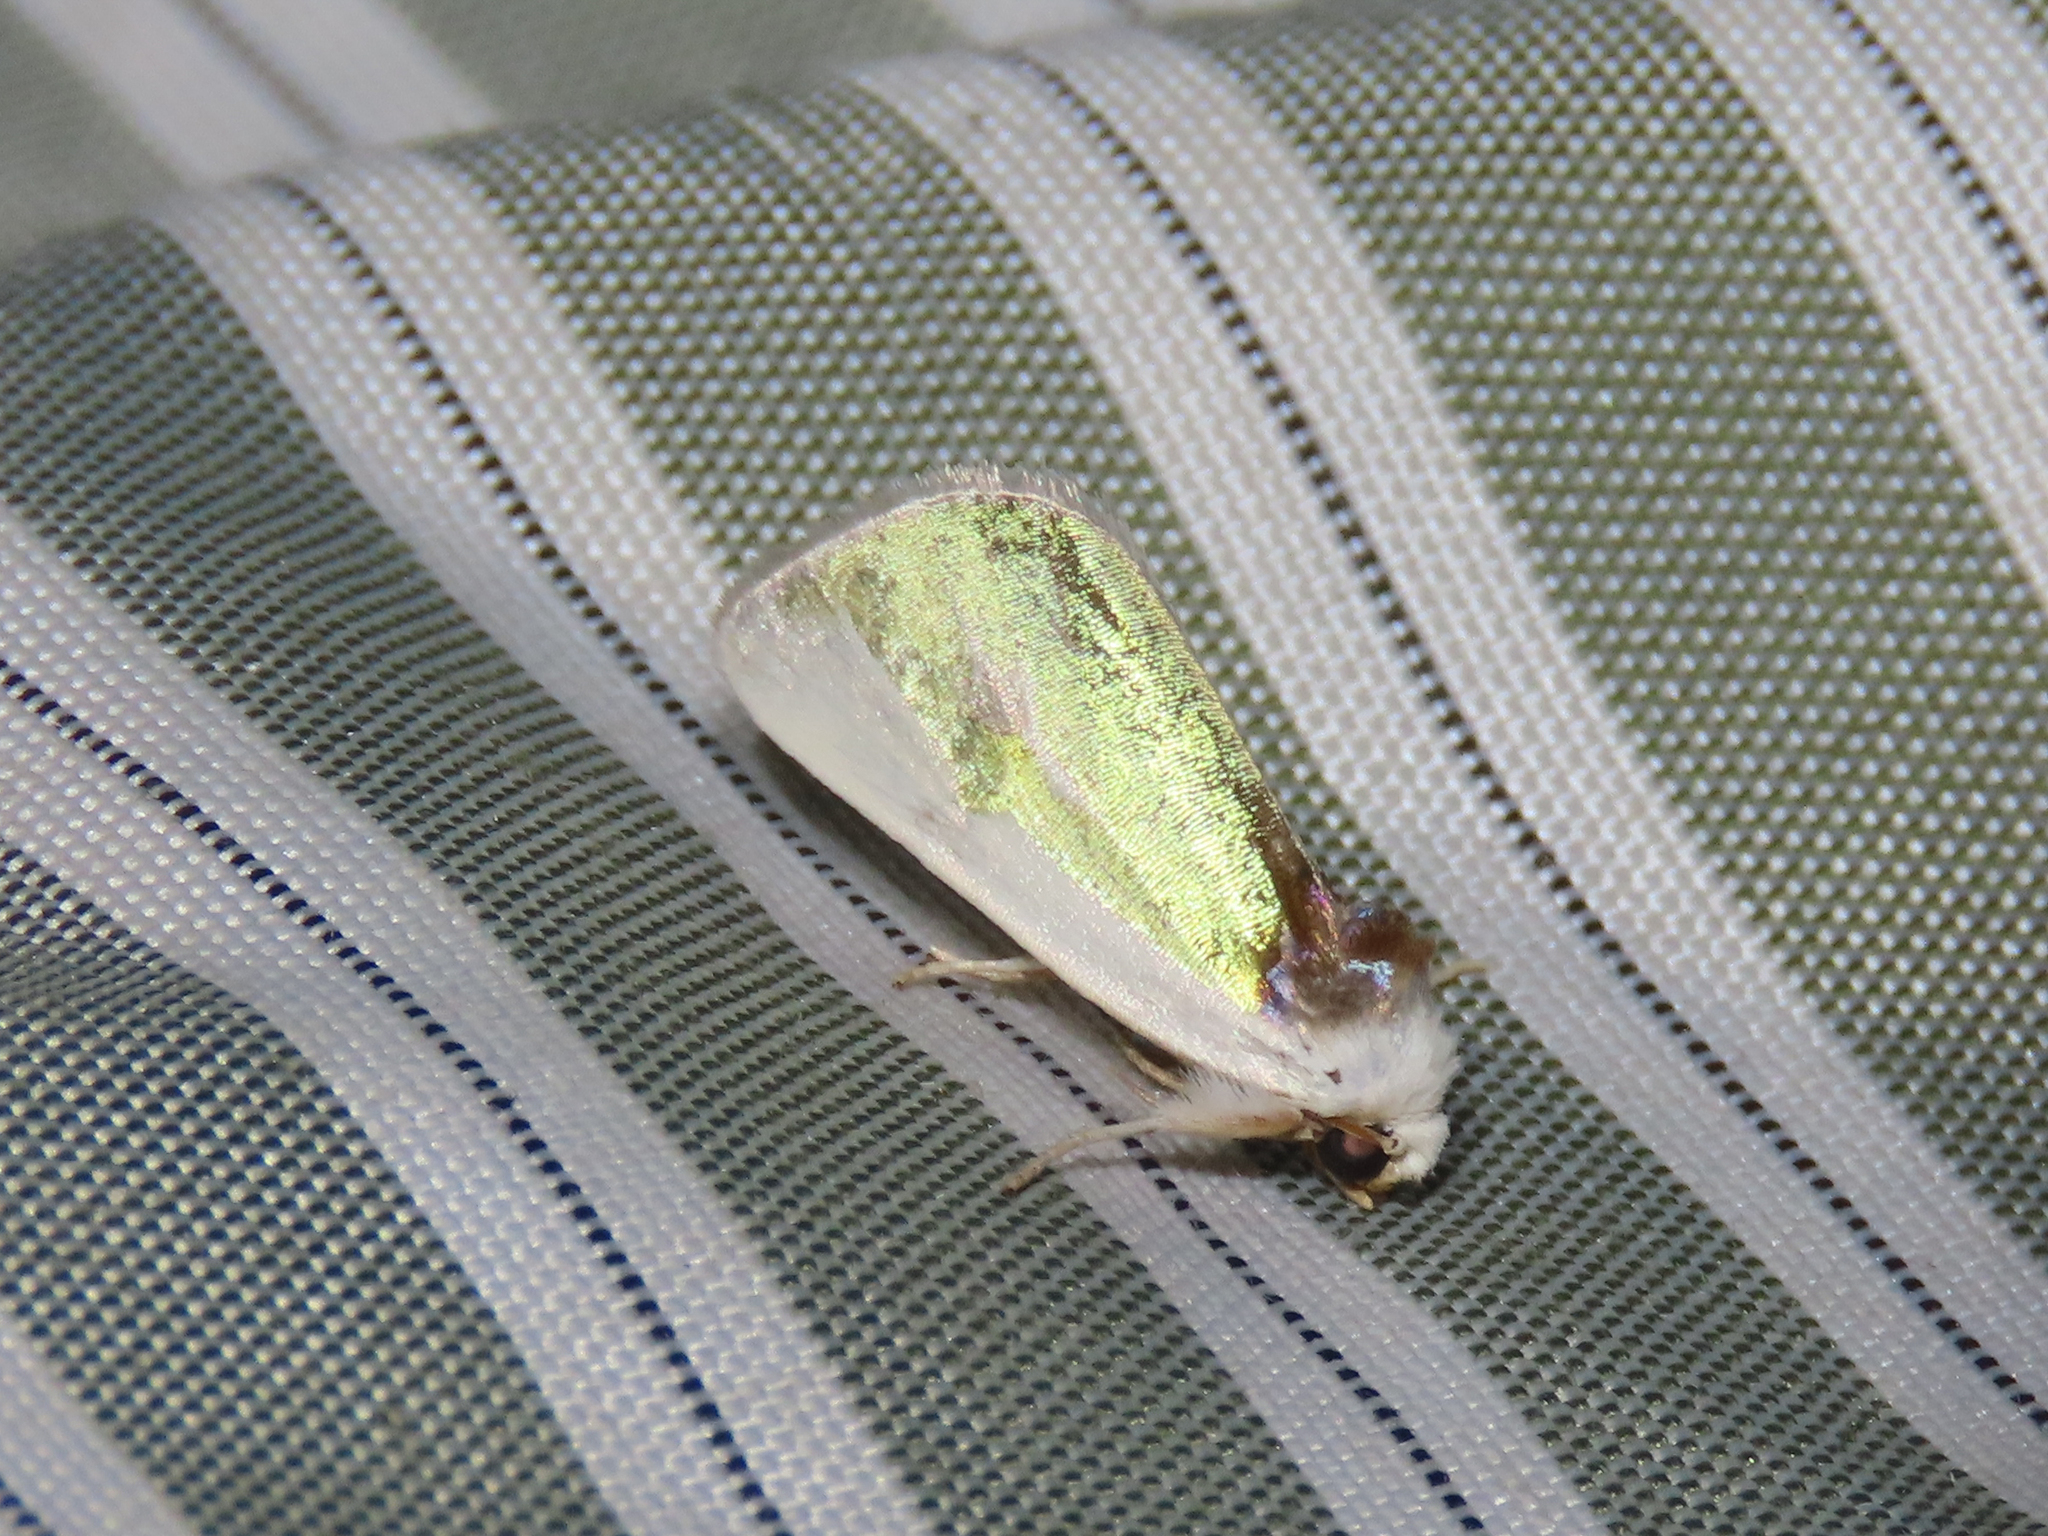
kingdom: Animalia
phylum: Arthropoda
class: Insecta
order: Lepidoptera
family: Noctuidae
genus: Neumoegenia
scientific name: Neumoegenia poetica
